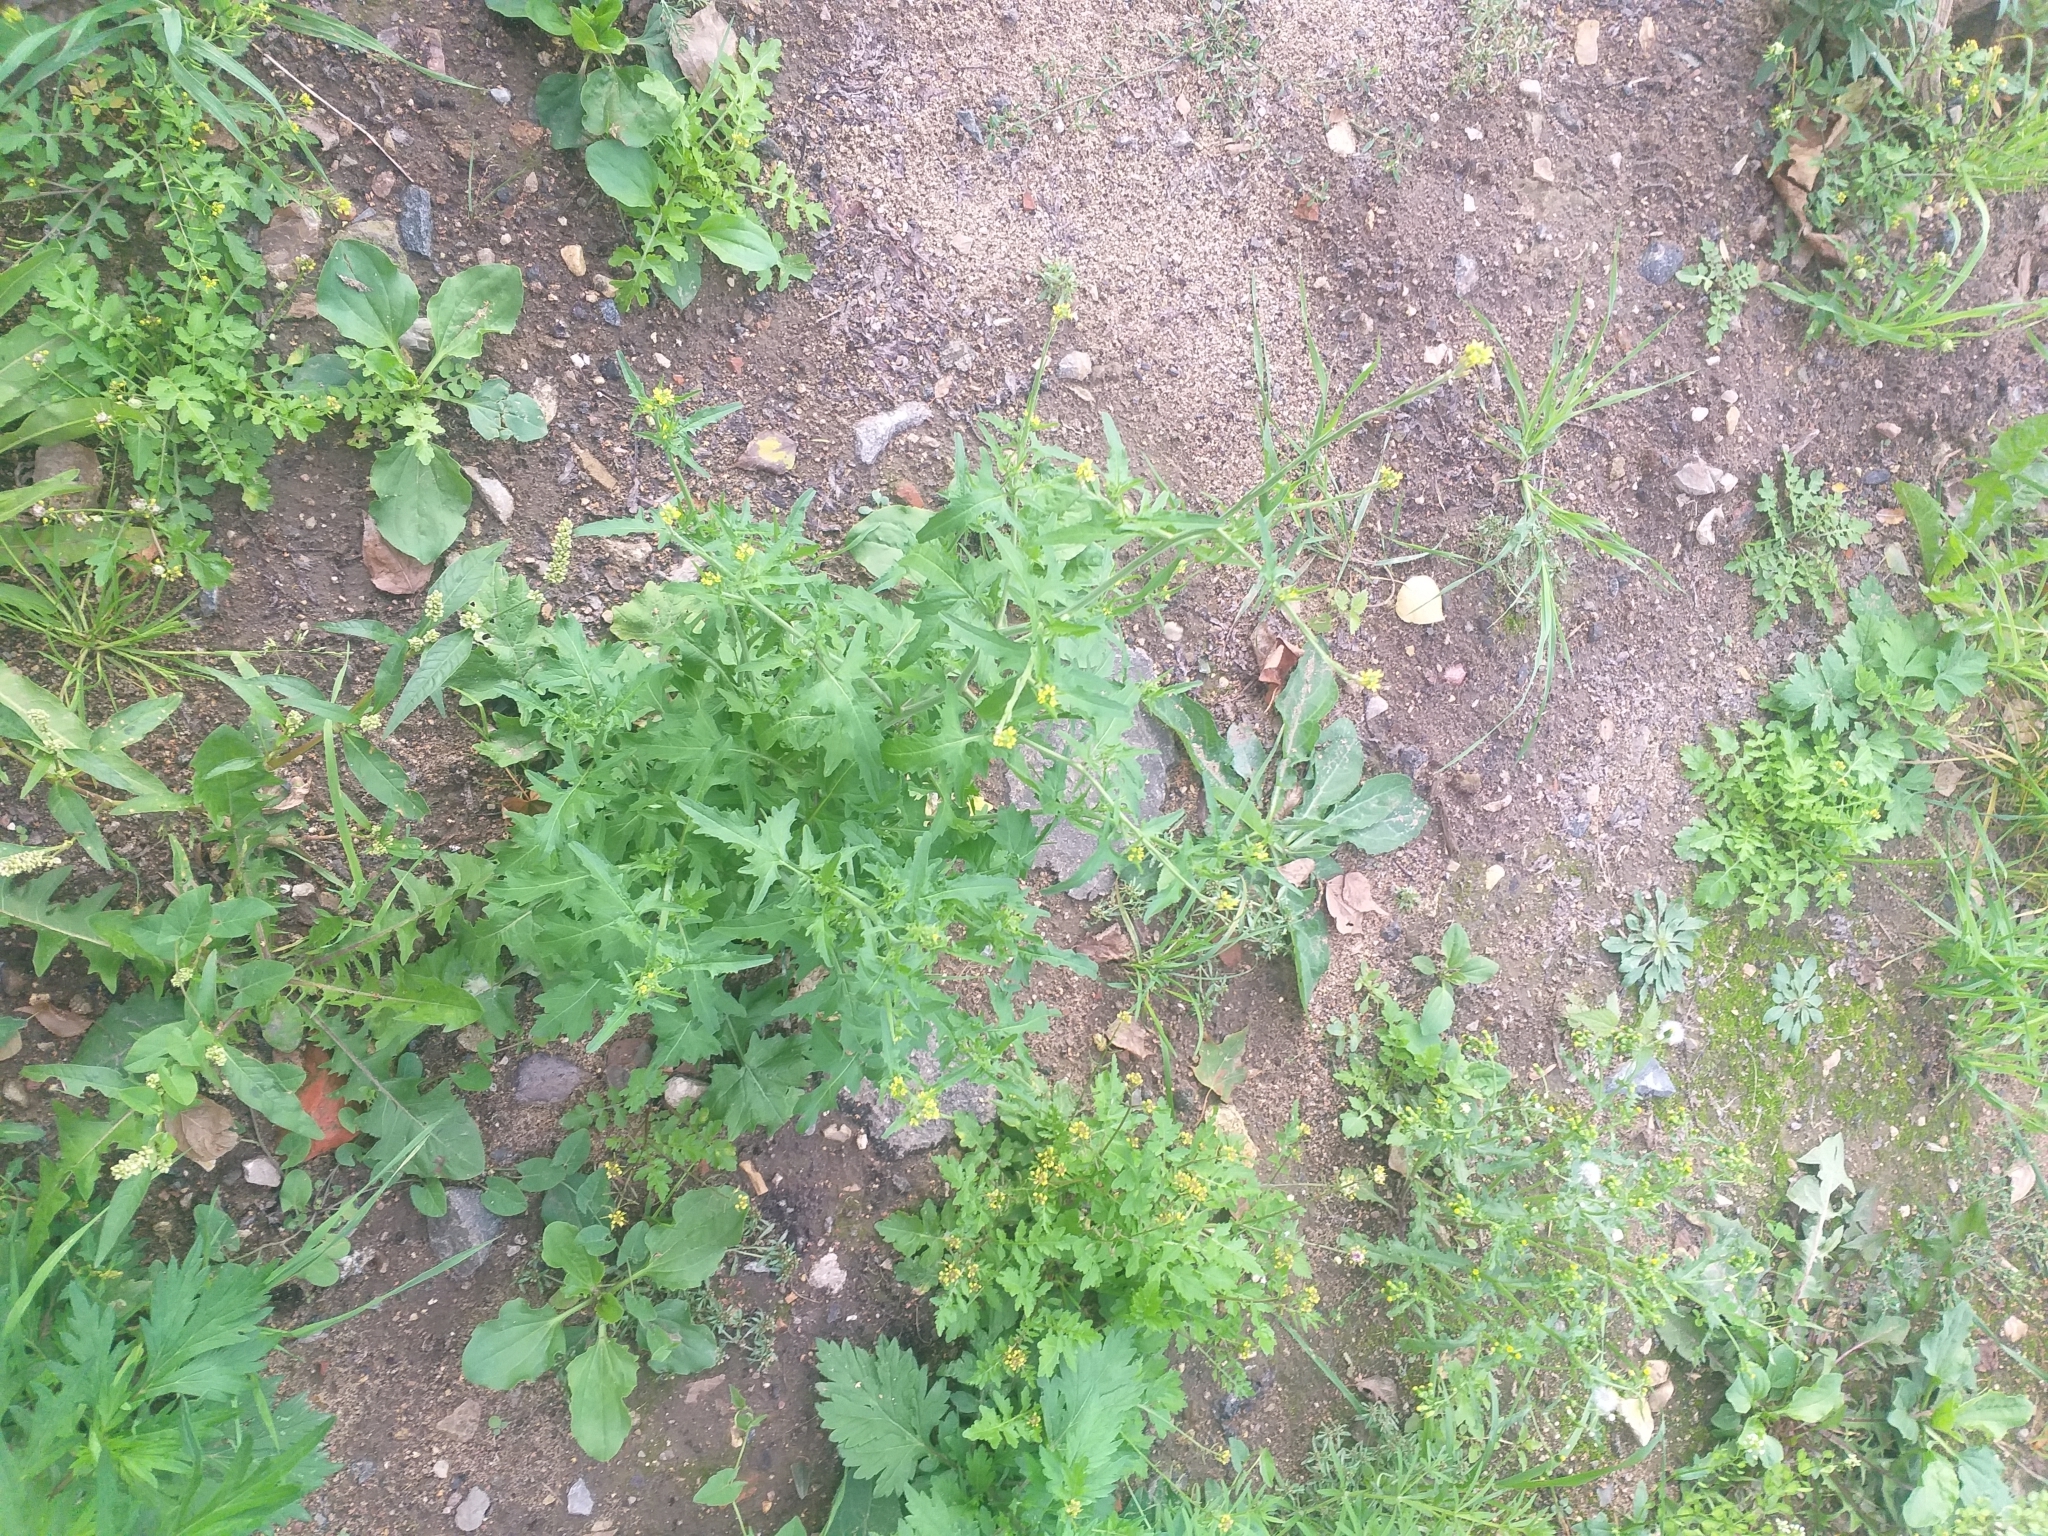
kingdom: Plantae
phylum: Tracheophyta
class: Magnoliopsida
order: Brassicales
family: Brassicaceae
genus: Sisymbrium
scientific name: Sisymbrium officinale
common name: Hedge mustard
